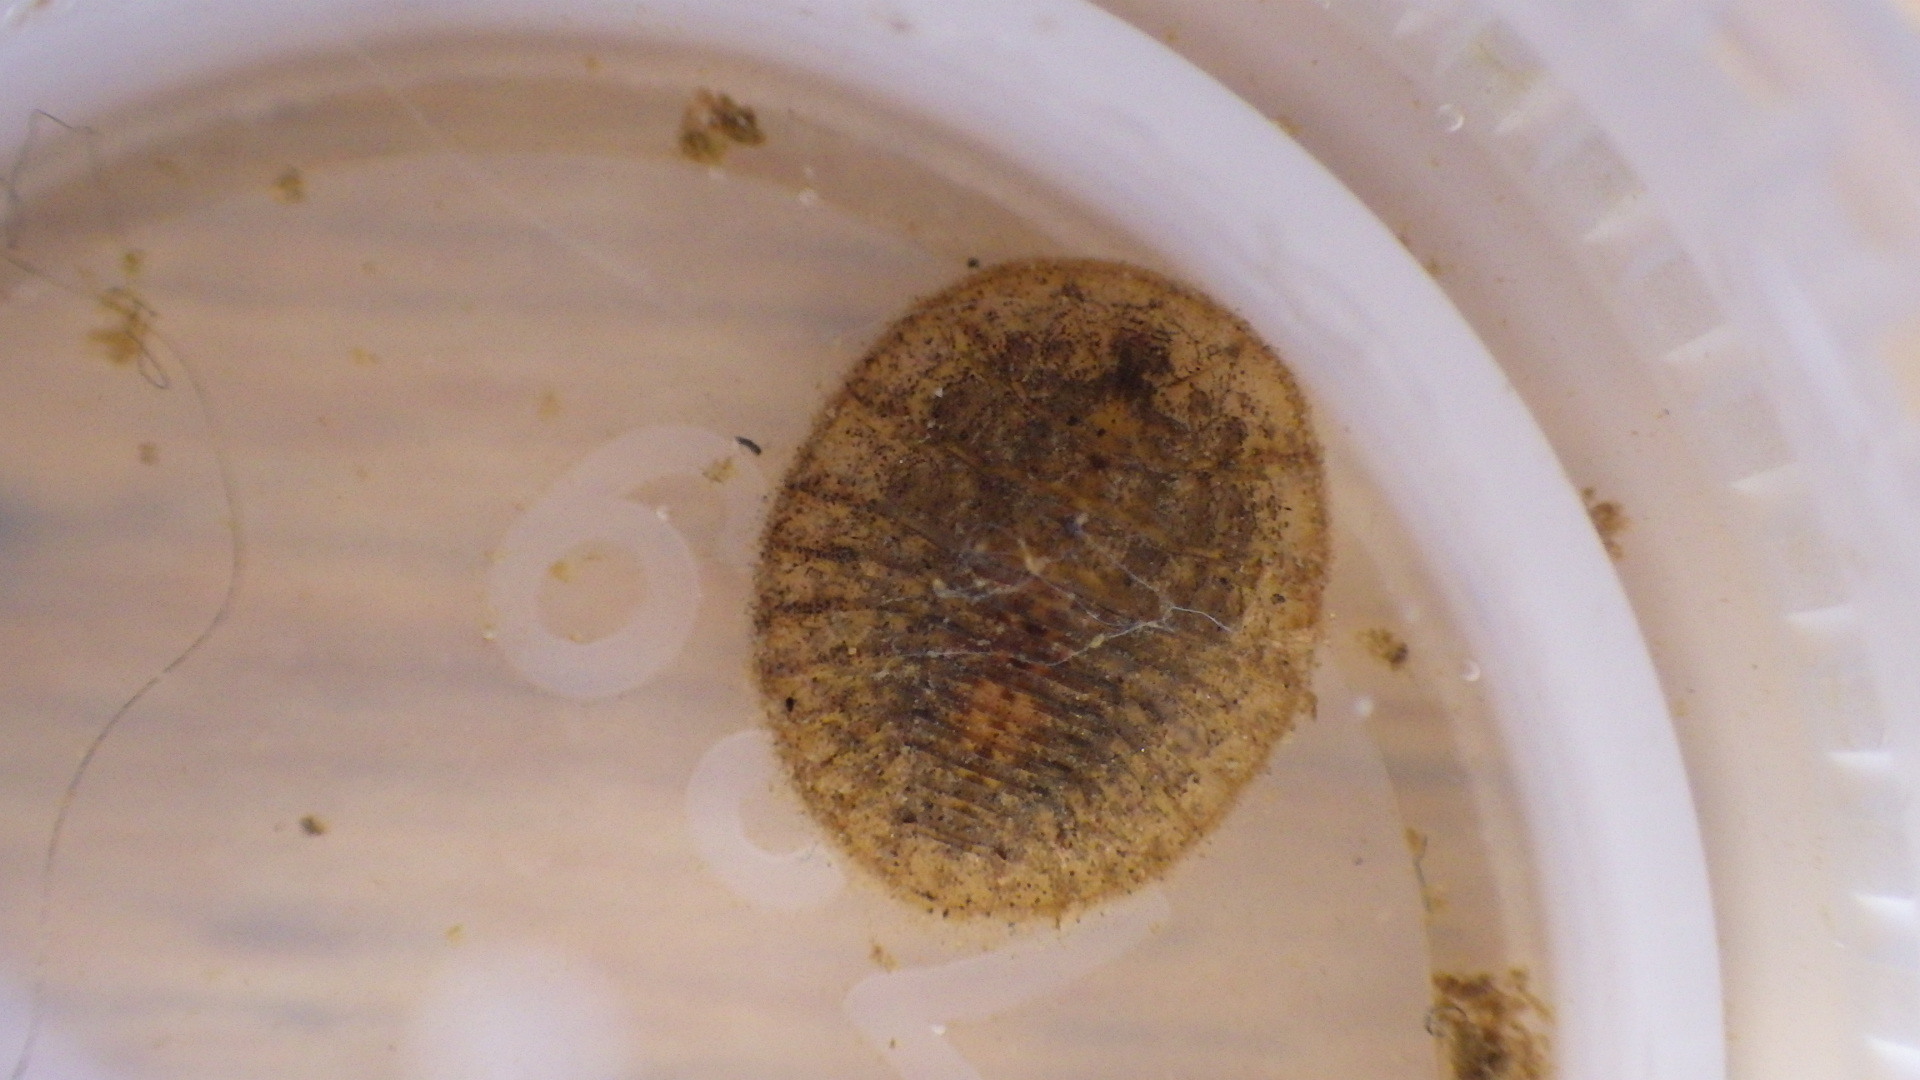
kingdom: Animalia
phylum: Arthropoda
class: Insecta
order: Coleoptera
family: Psephenidae
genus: Psephenus
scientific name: Psephenus herricki
